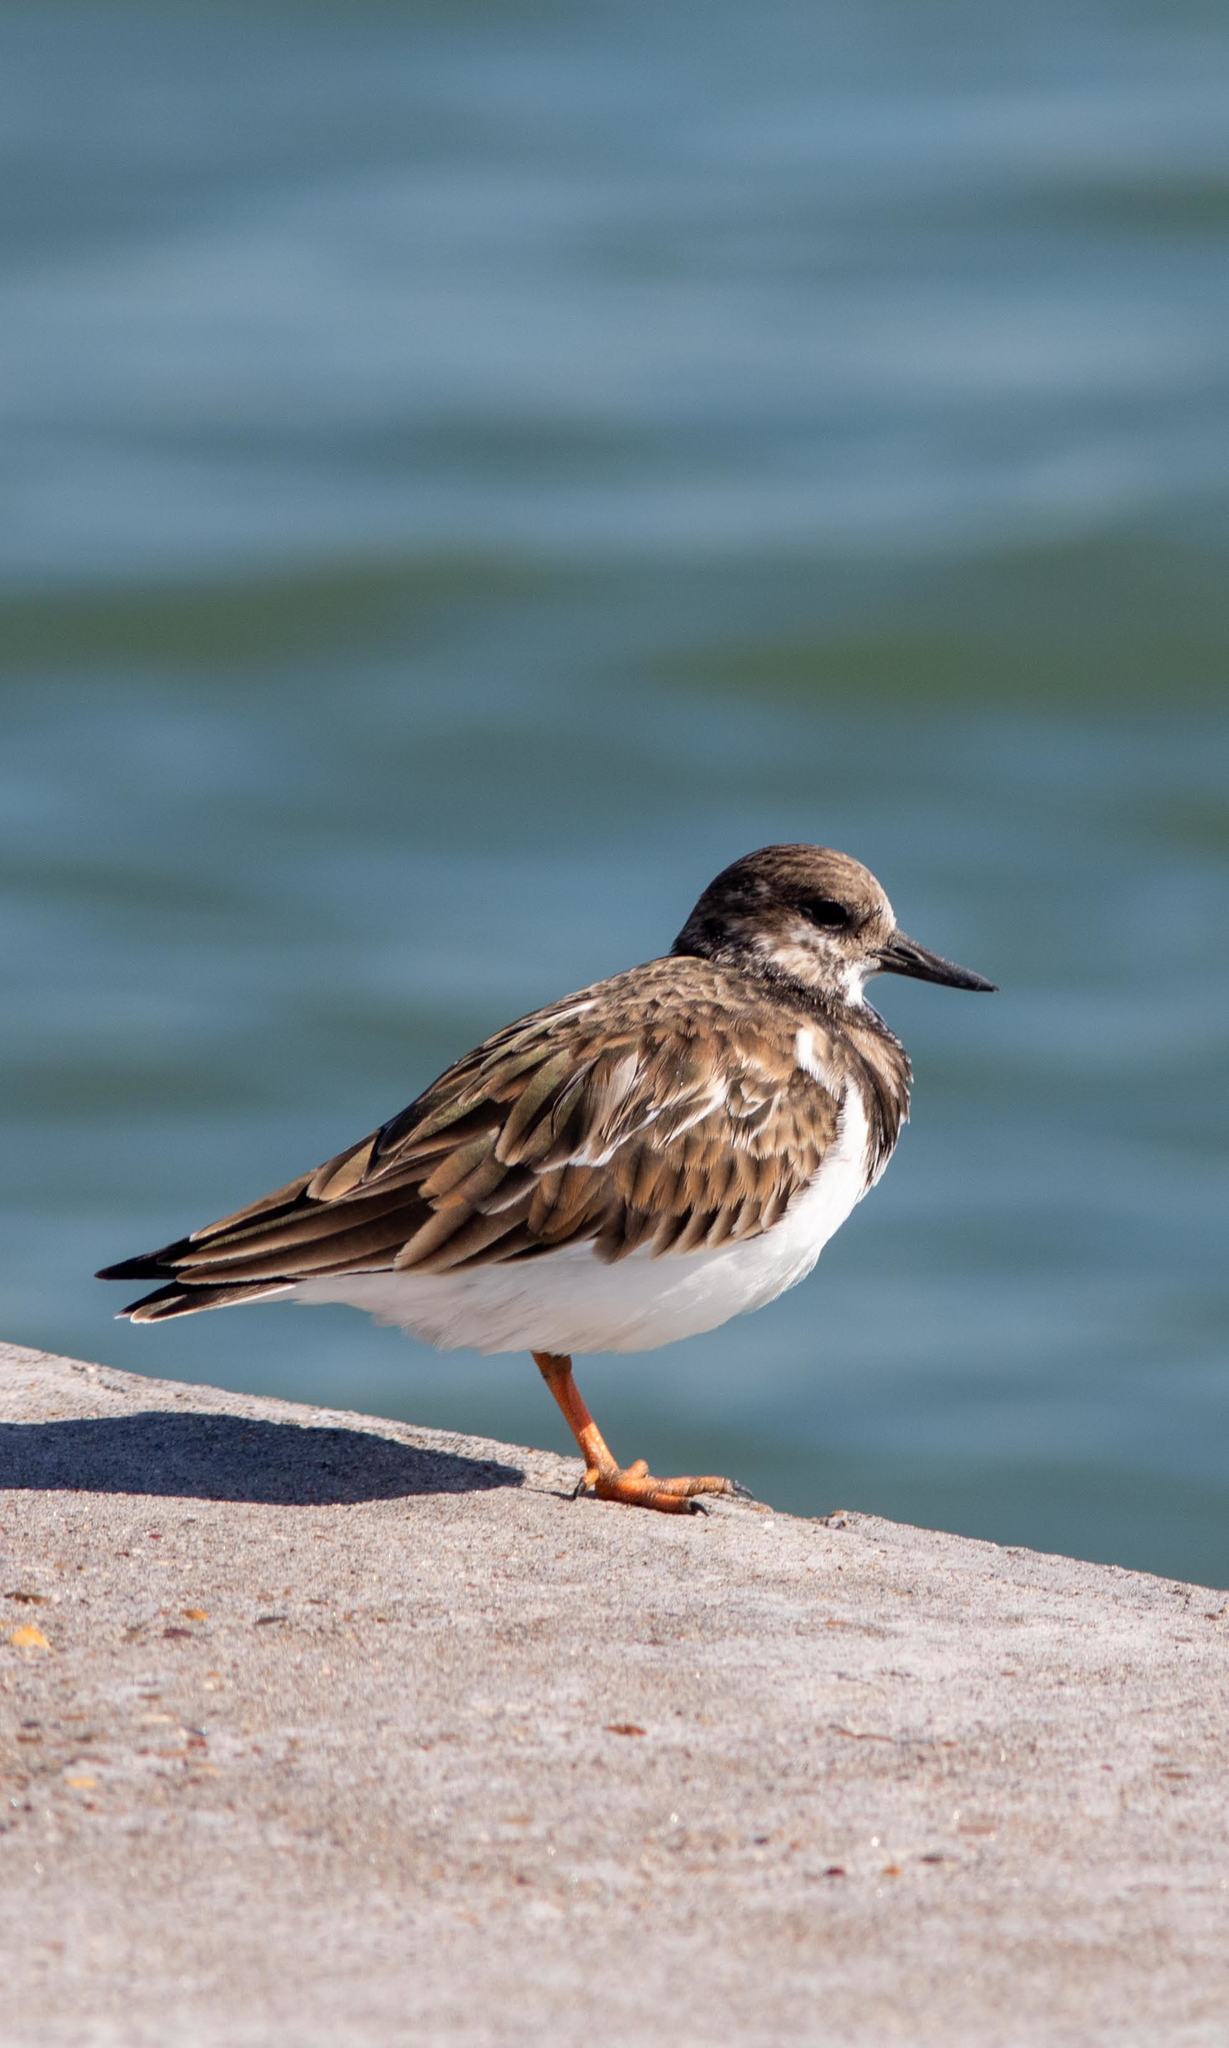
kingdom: Animalia
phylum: Chordata
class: Aves
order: Charadriiformes
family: Scolopacidae
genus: Arenaria
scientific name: Arenaria interpres
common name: Ruddy turnstone
